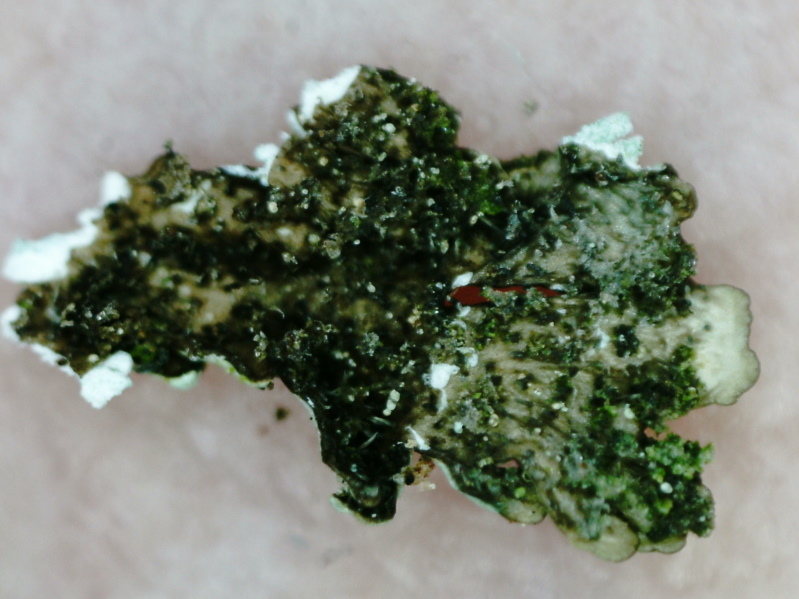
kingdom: Fungi
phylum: Ascomycota
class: Lecanoromycetes
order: Lecanorales
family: Parmeliaceae
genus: Imshaugia
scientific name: Imshaugia aleurites
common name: Salted starburst lichen
